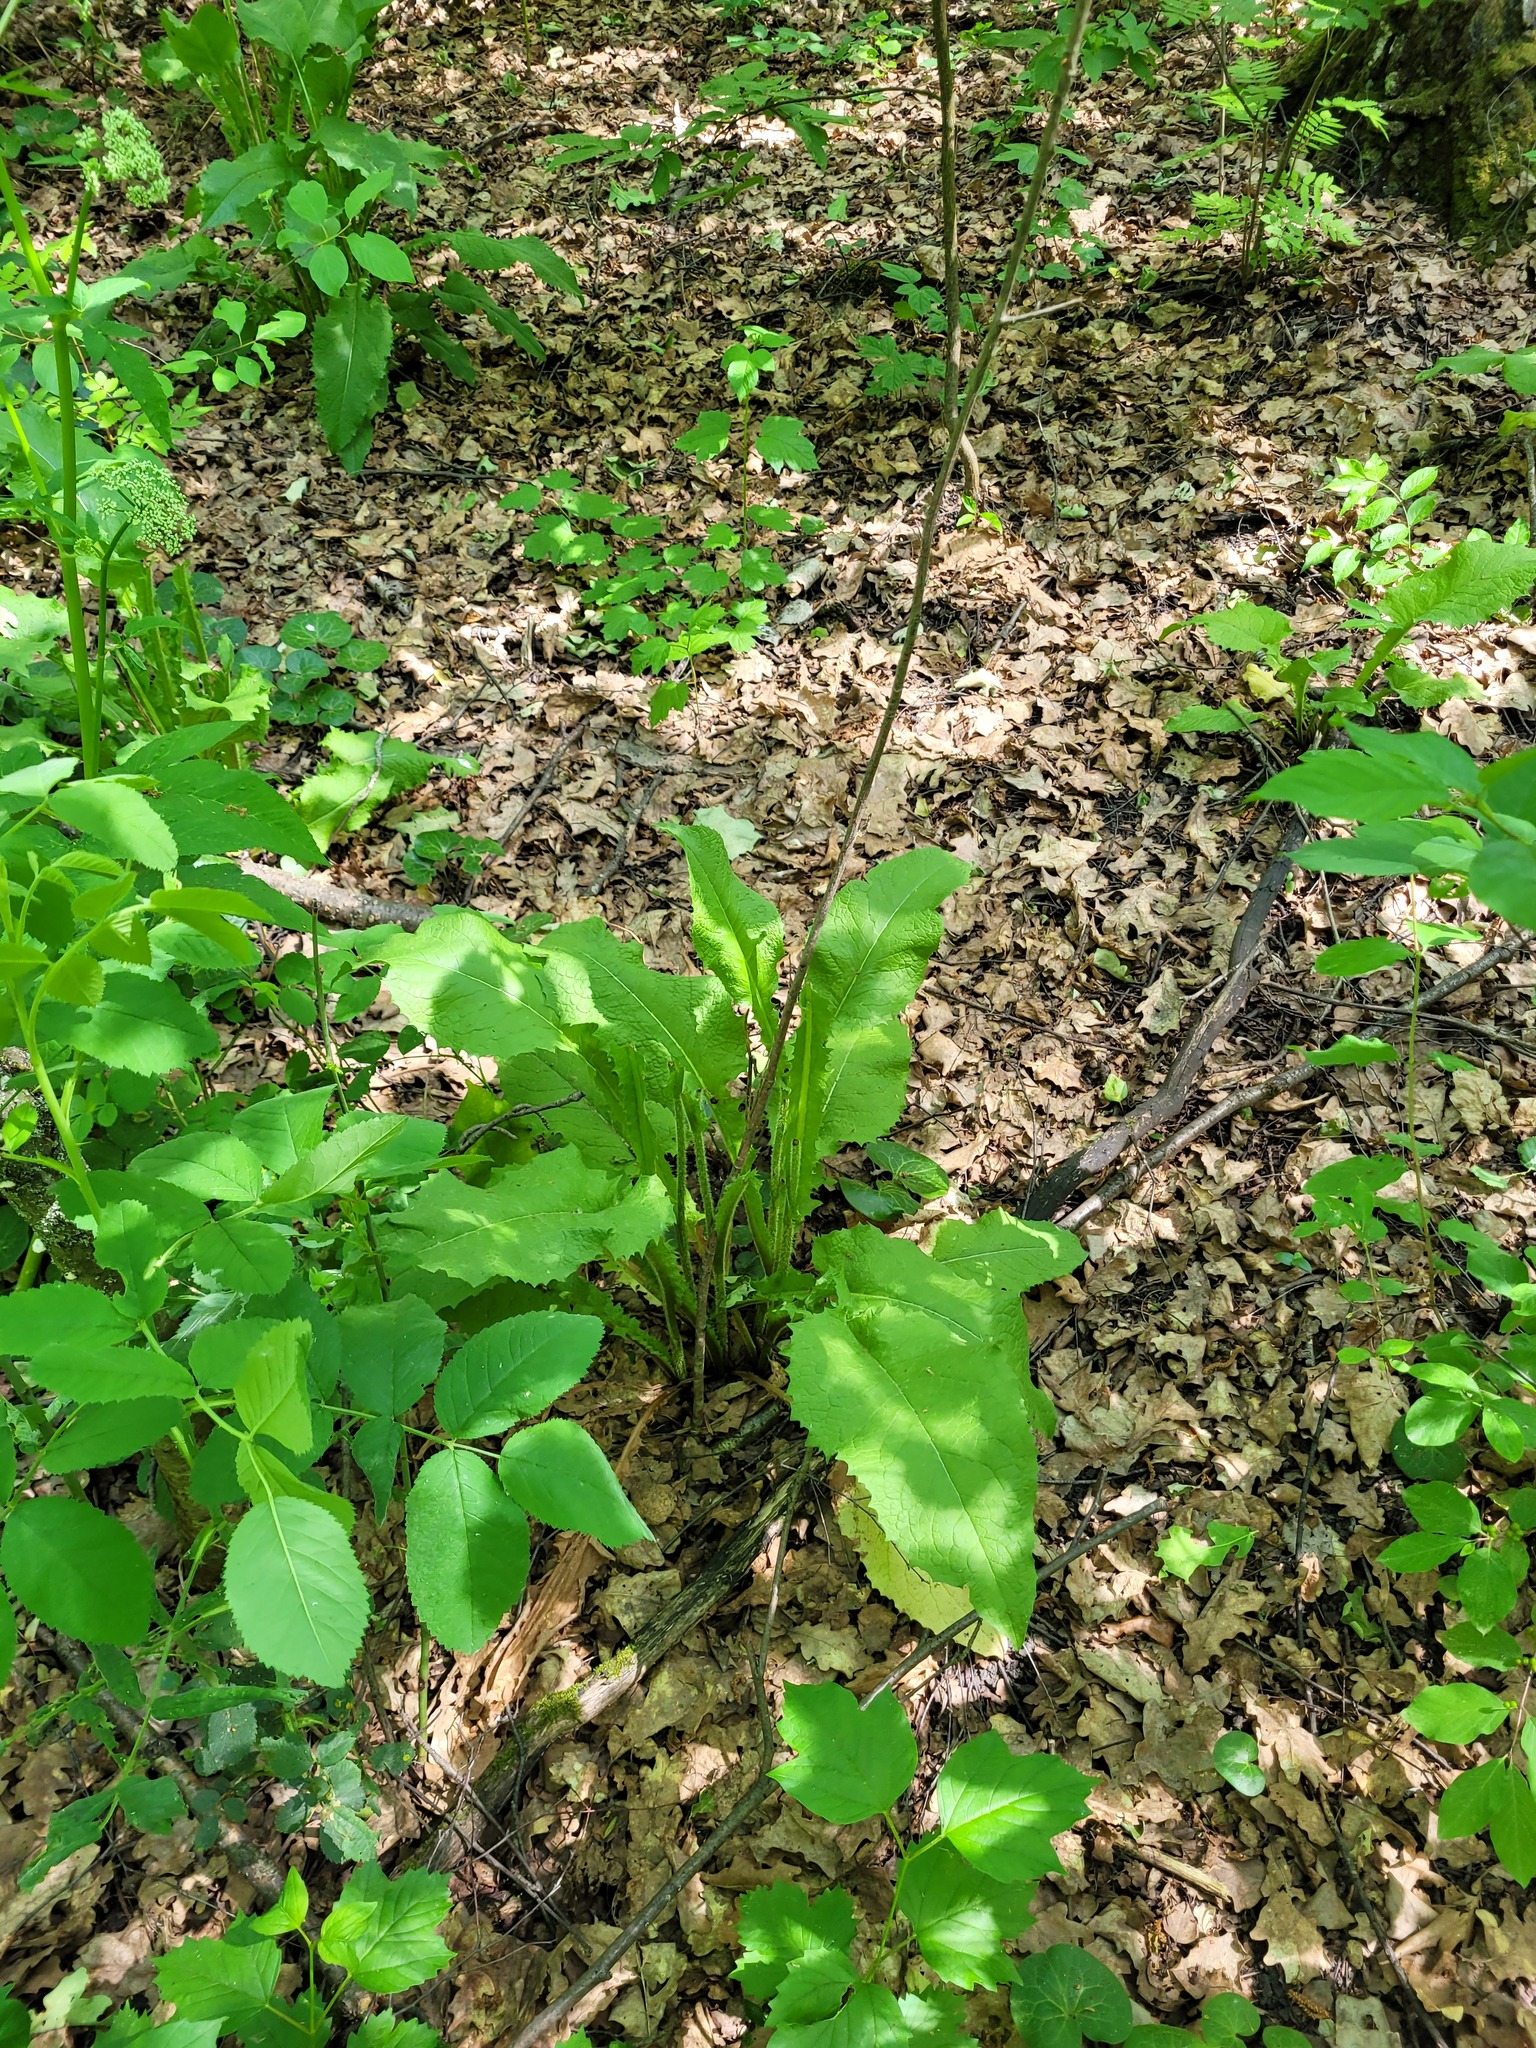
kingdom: Plantae
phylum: Tracheophyta
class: Magnoliopsida
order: Asterales
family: Asteraceae
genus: Crepis
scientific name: Crepis sibirica
